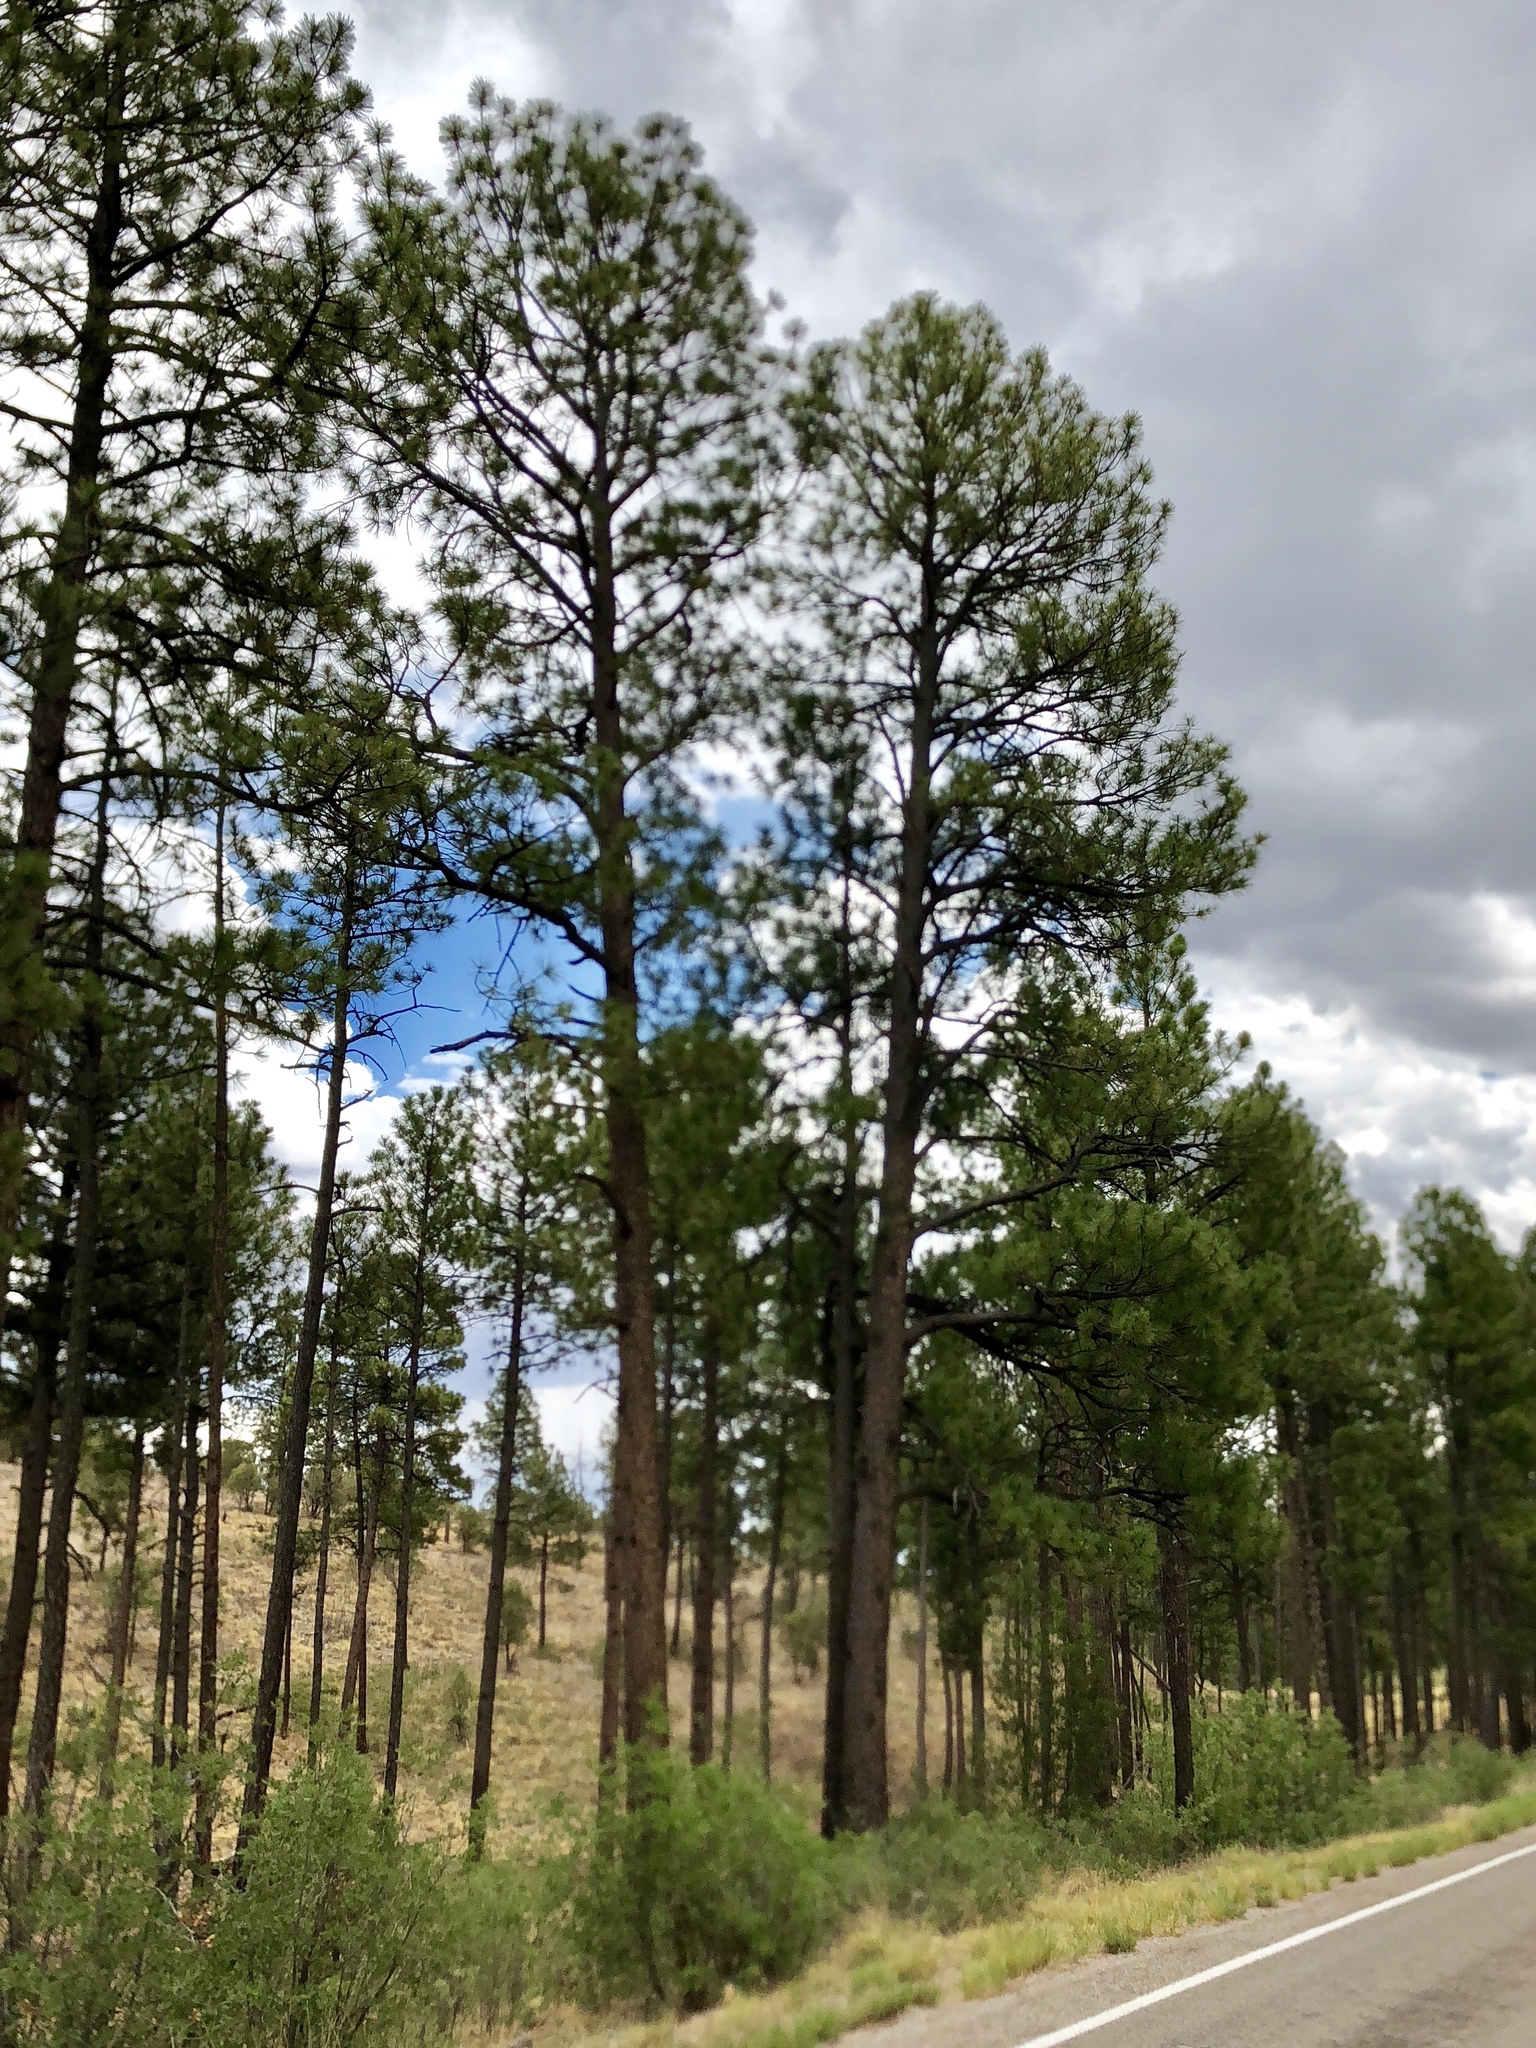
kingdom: Plantae
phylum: Tracheophyta
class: Pinopsida
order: Pinales
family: Pinaceae
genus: Pinus
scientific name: Pinus ponderosa
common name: Western yellow-pine
